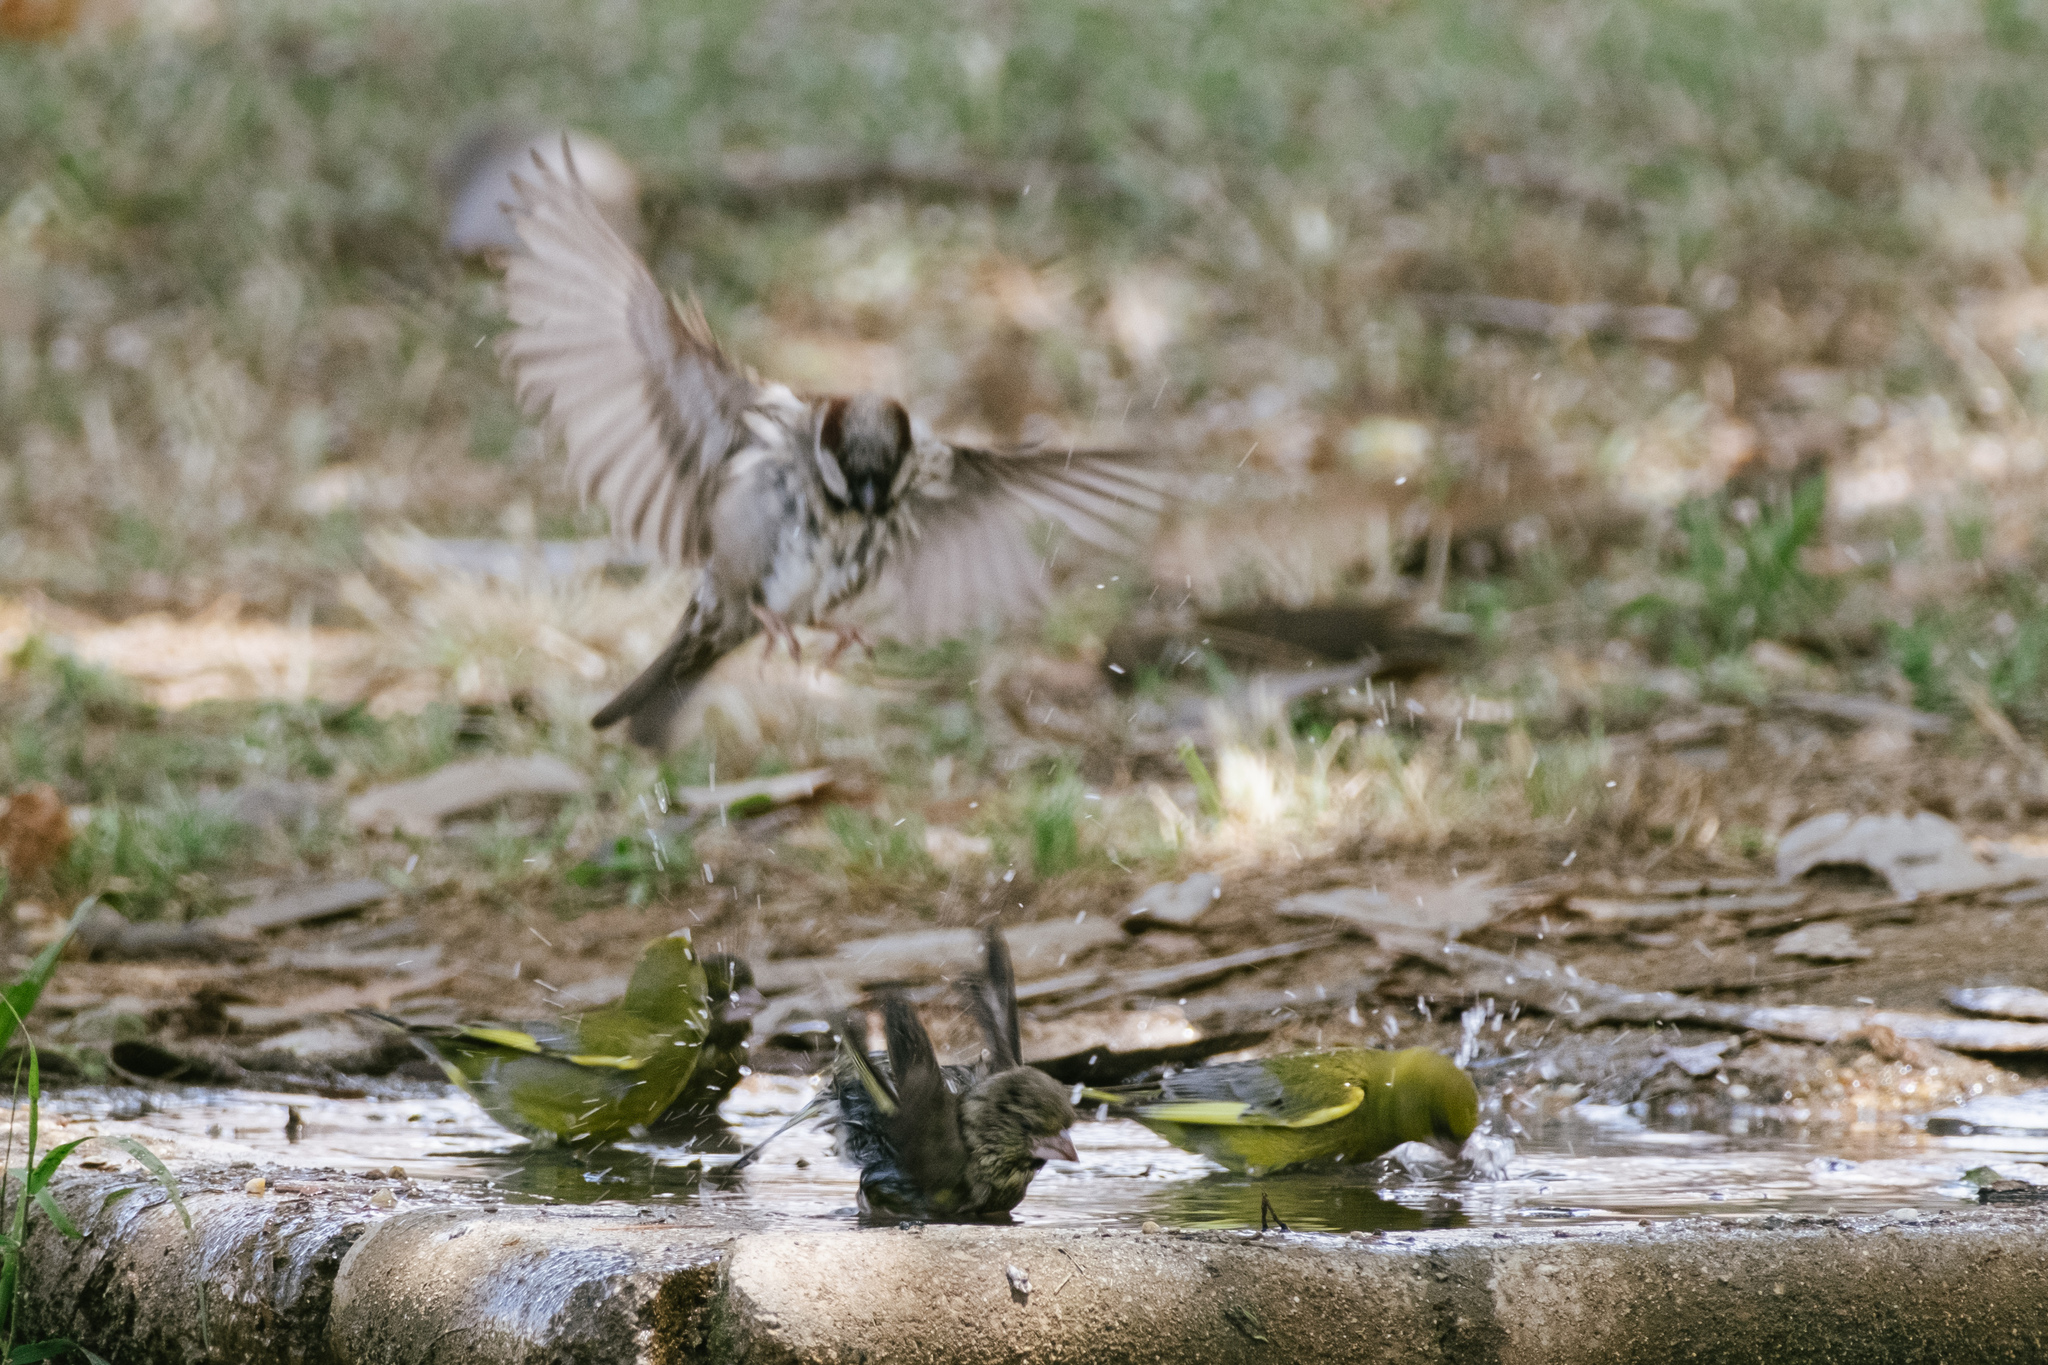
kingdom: Plantae
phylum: Tracheophyta
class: Liliopsida
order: Poales
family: Poaceae
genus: Chloris
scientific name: Chloris chloris
